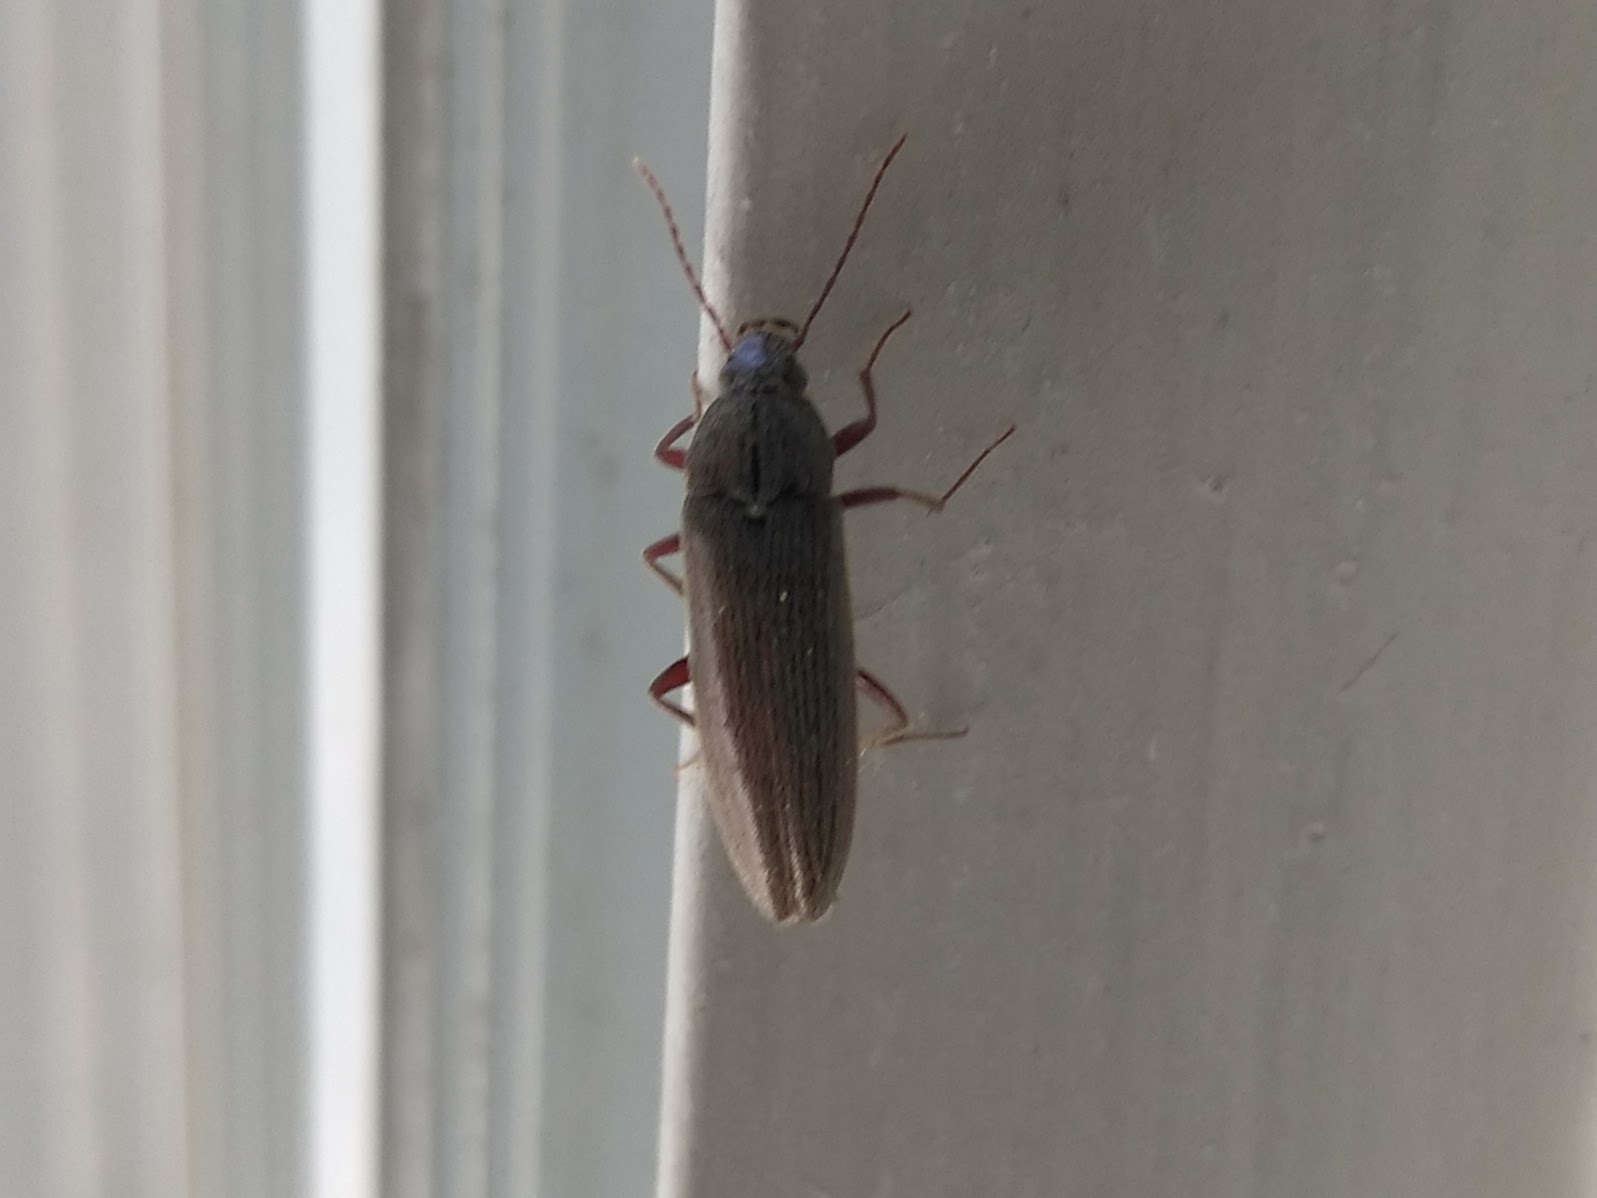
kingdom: Animalia
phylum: Arthropoda
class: Insecta
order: Coleoptera
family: Synchroidae
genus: Synchroa
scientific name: Synchroa punctata
